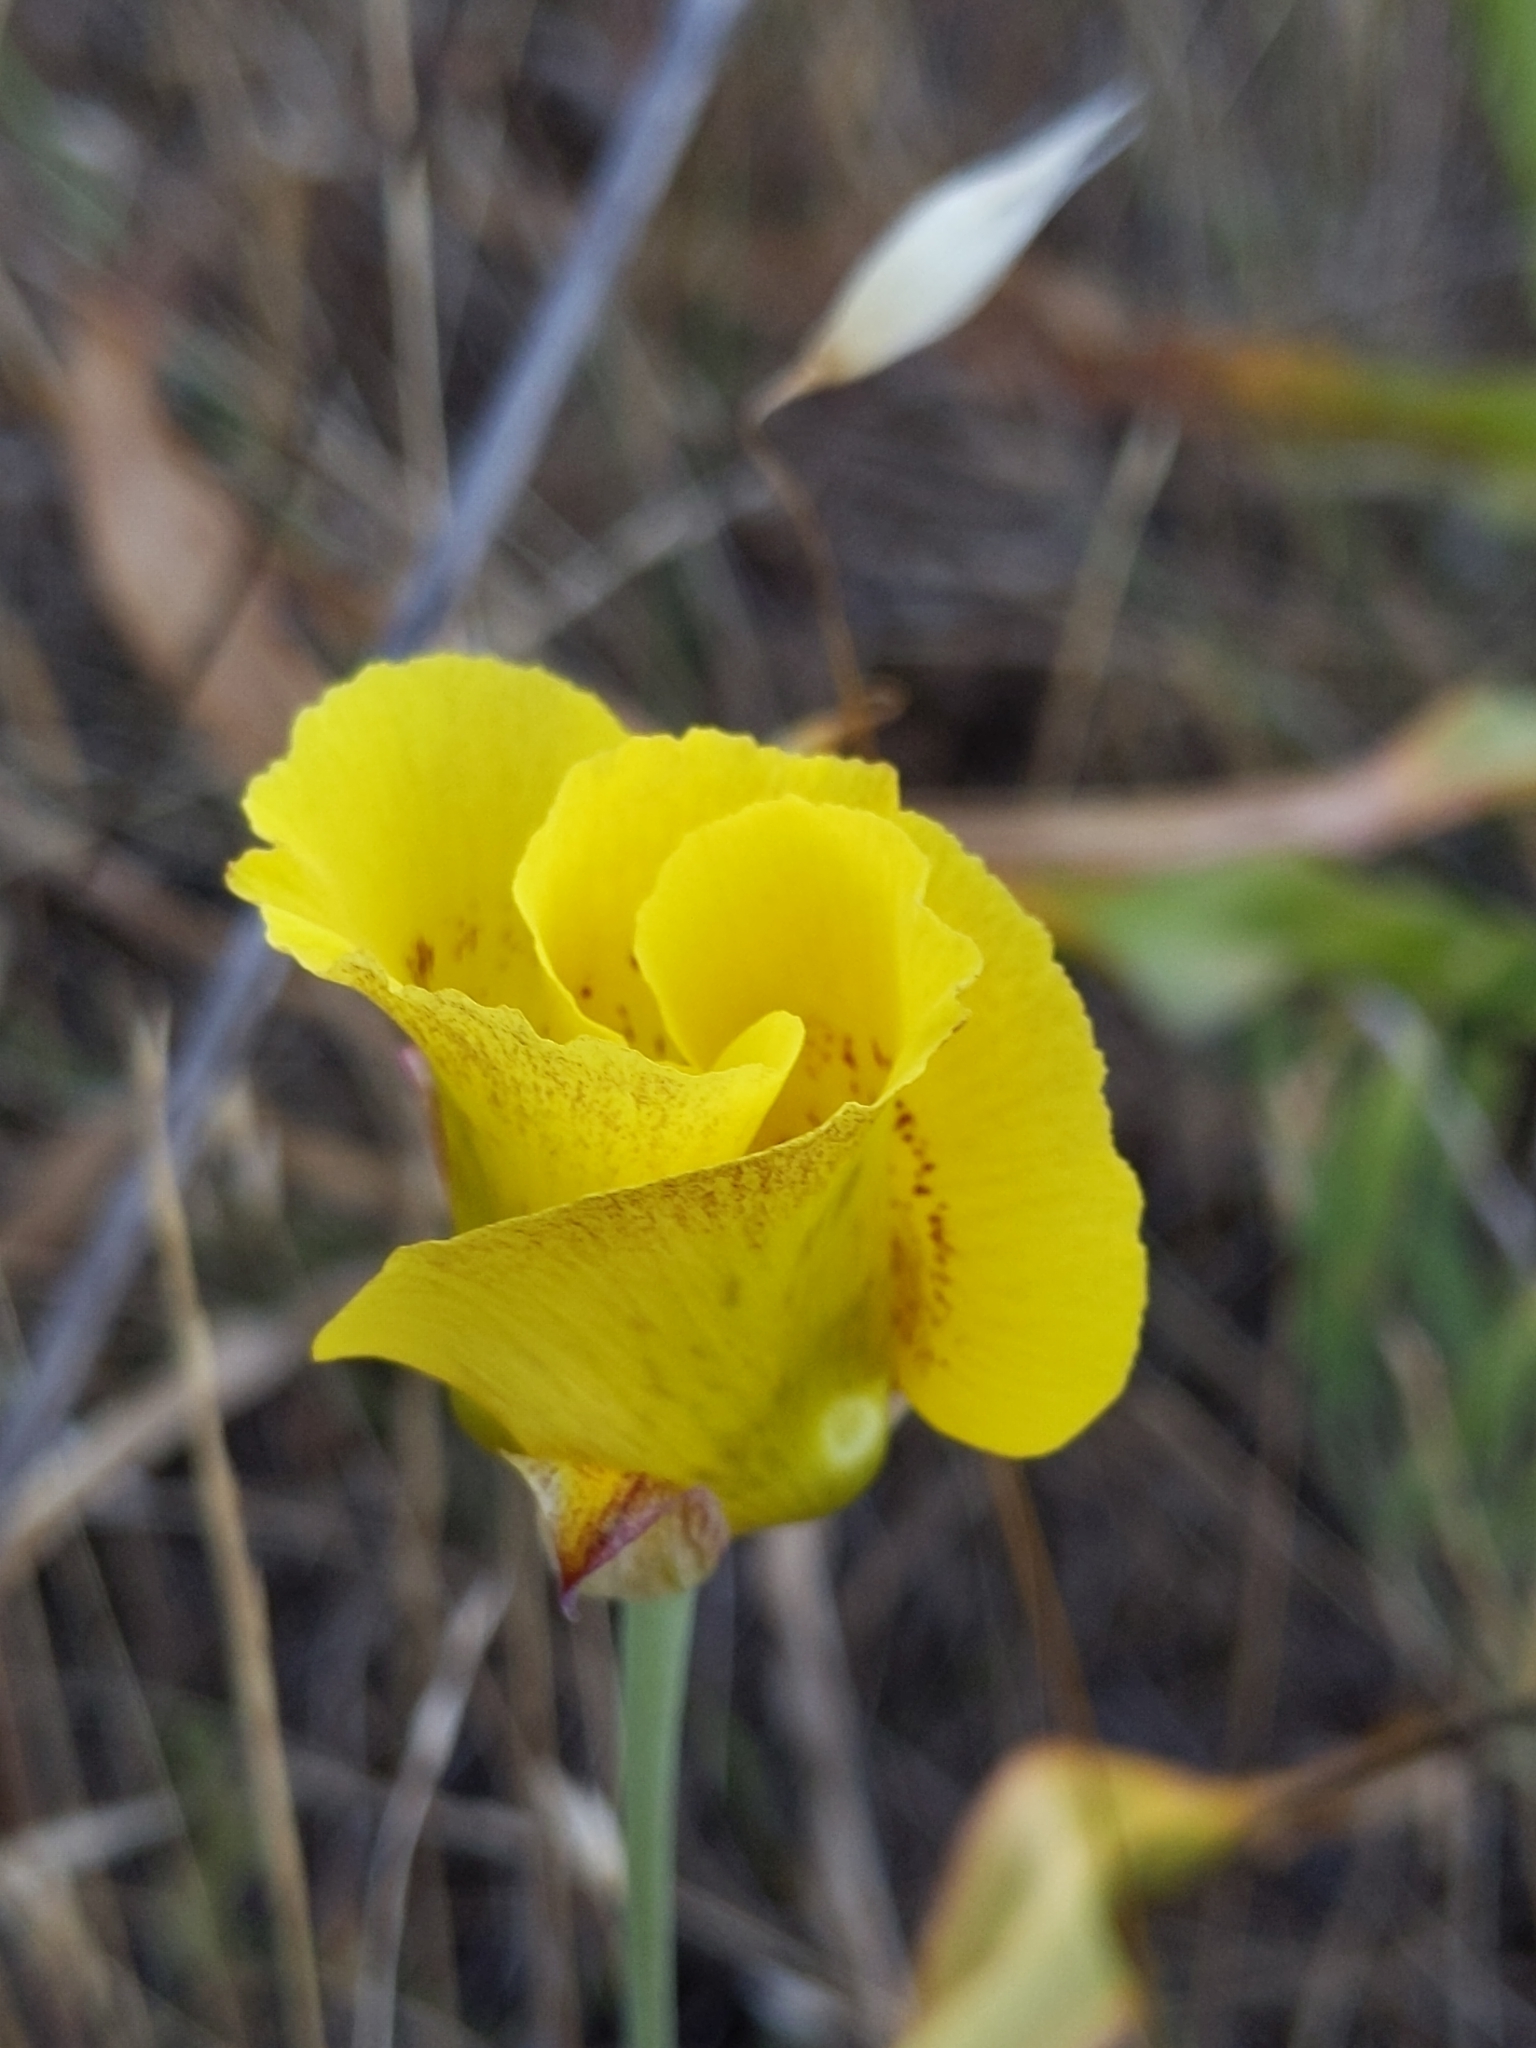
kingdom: Plantae
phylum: Tracheophyta
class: Liliopsida
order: Liliales
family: Liliaceae
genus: Calochortus
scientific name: Calochortus luteus
